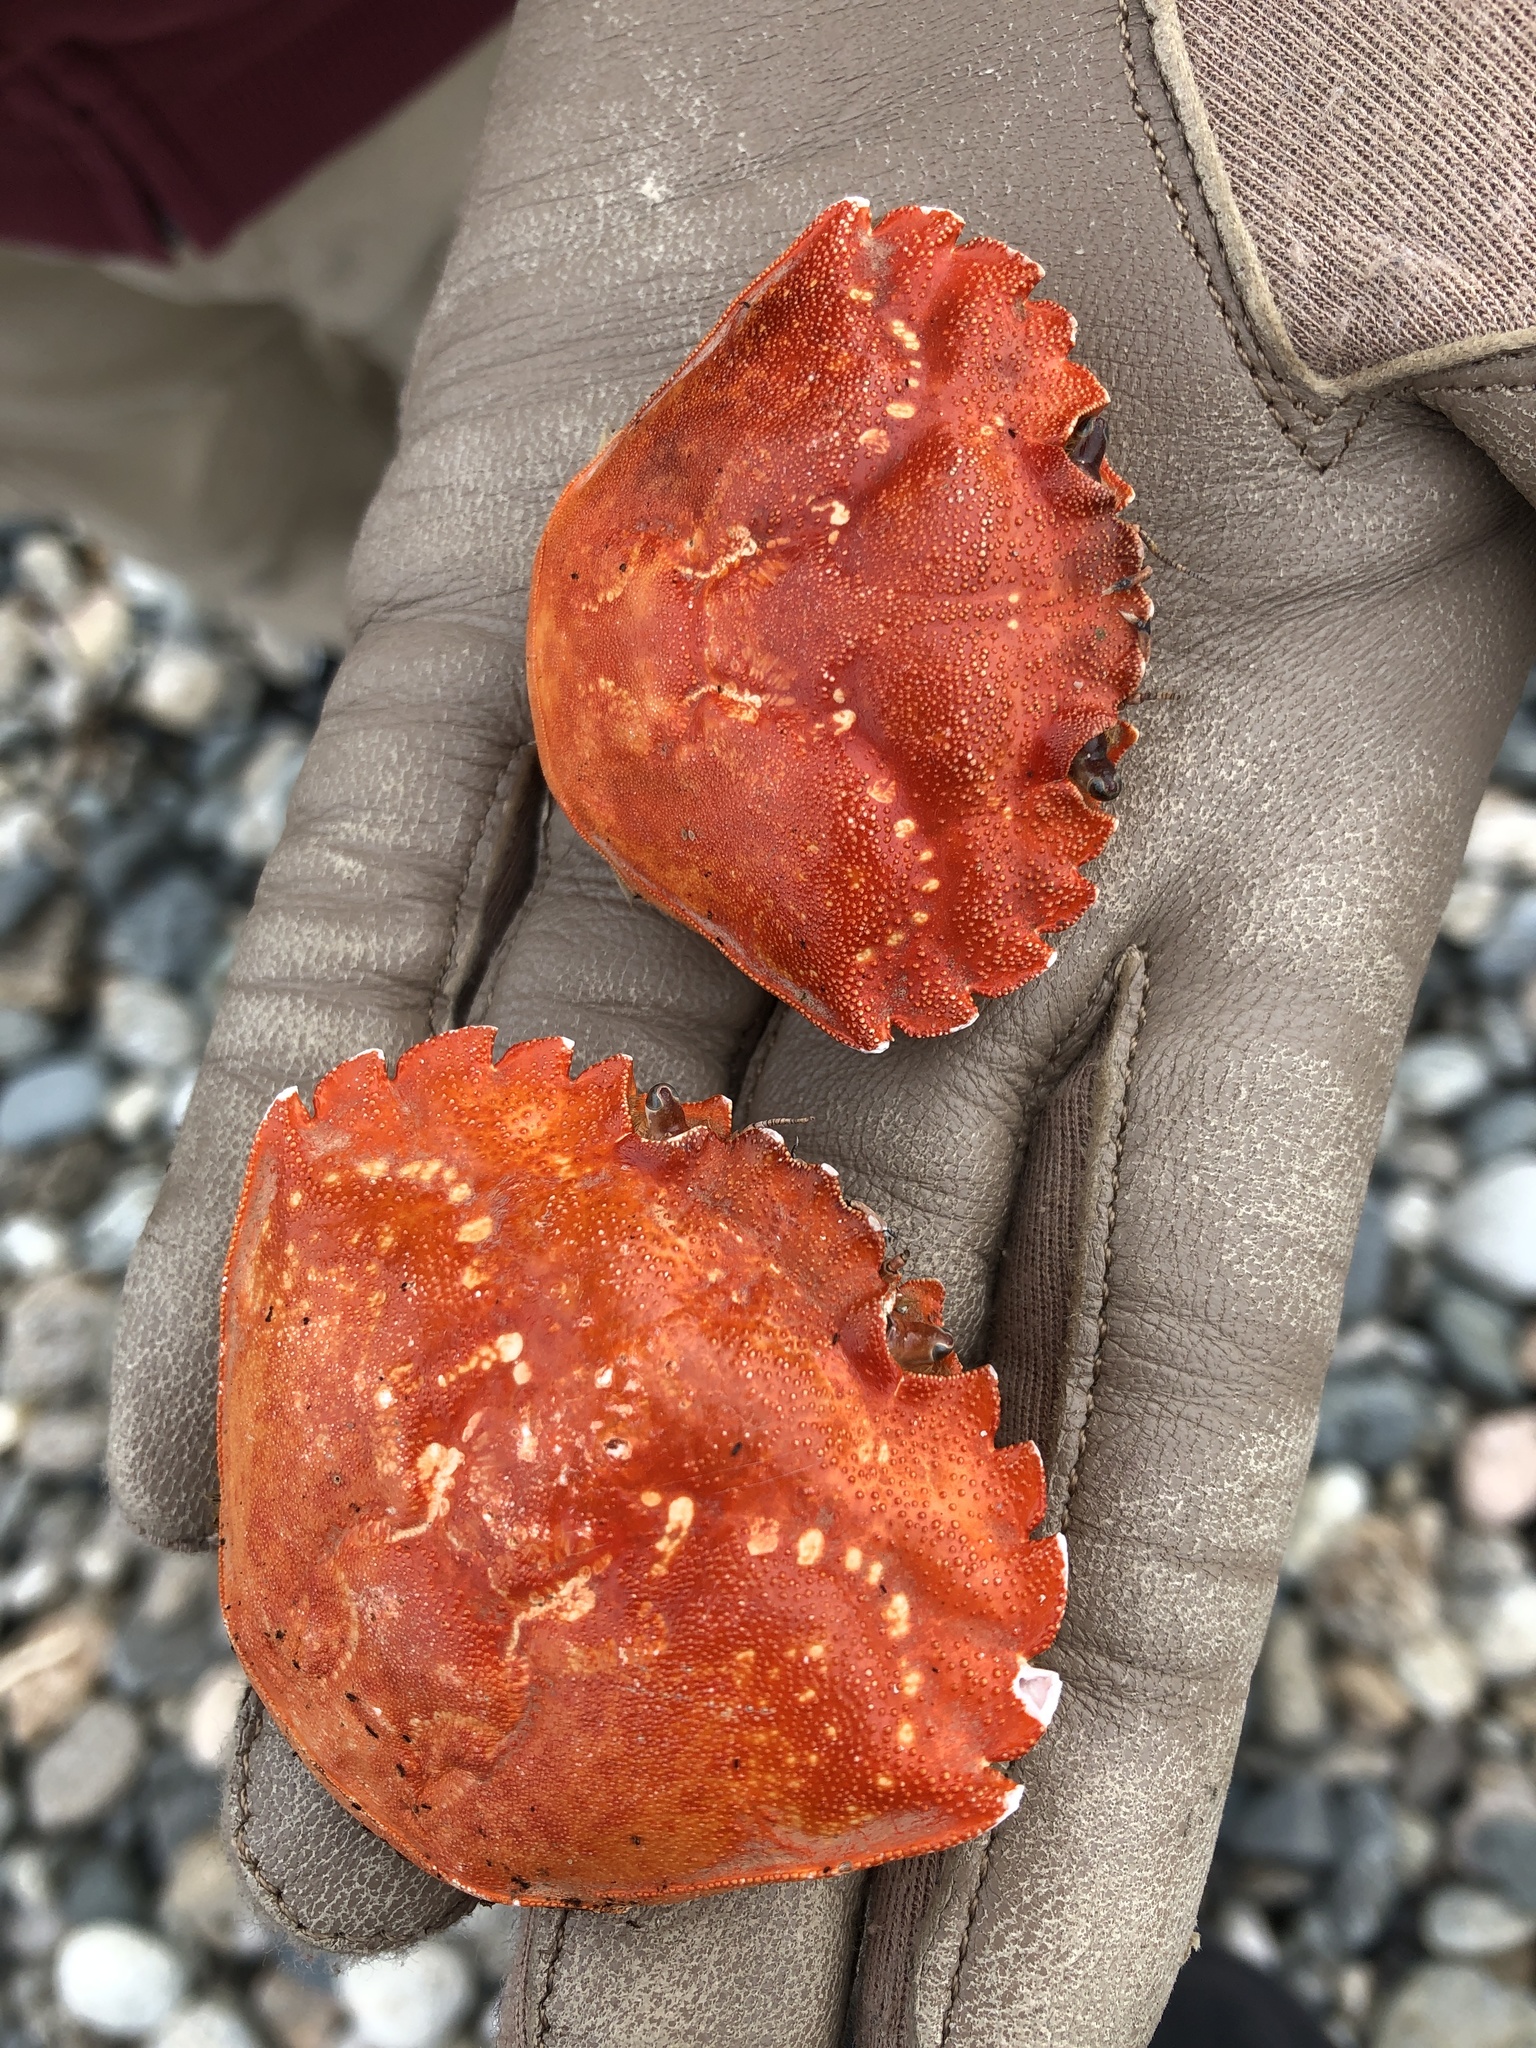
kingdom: Animalia
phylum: Arthropoda
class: Malacostraca
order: Decapoda
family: Carcinidae
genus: Carcinus
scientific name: Carcinus maenas
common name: European green crab
